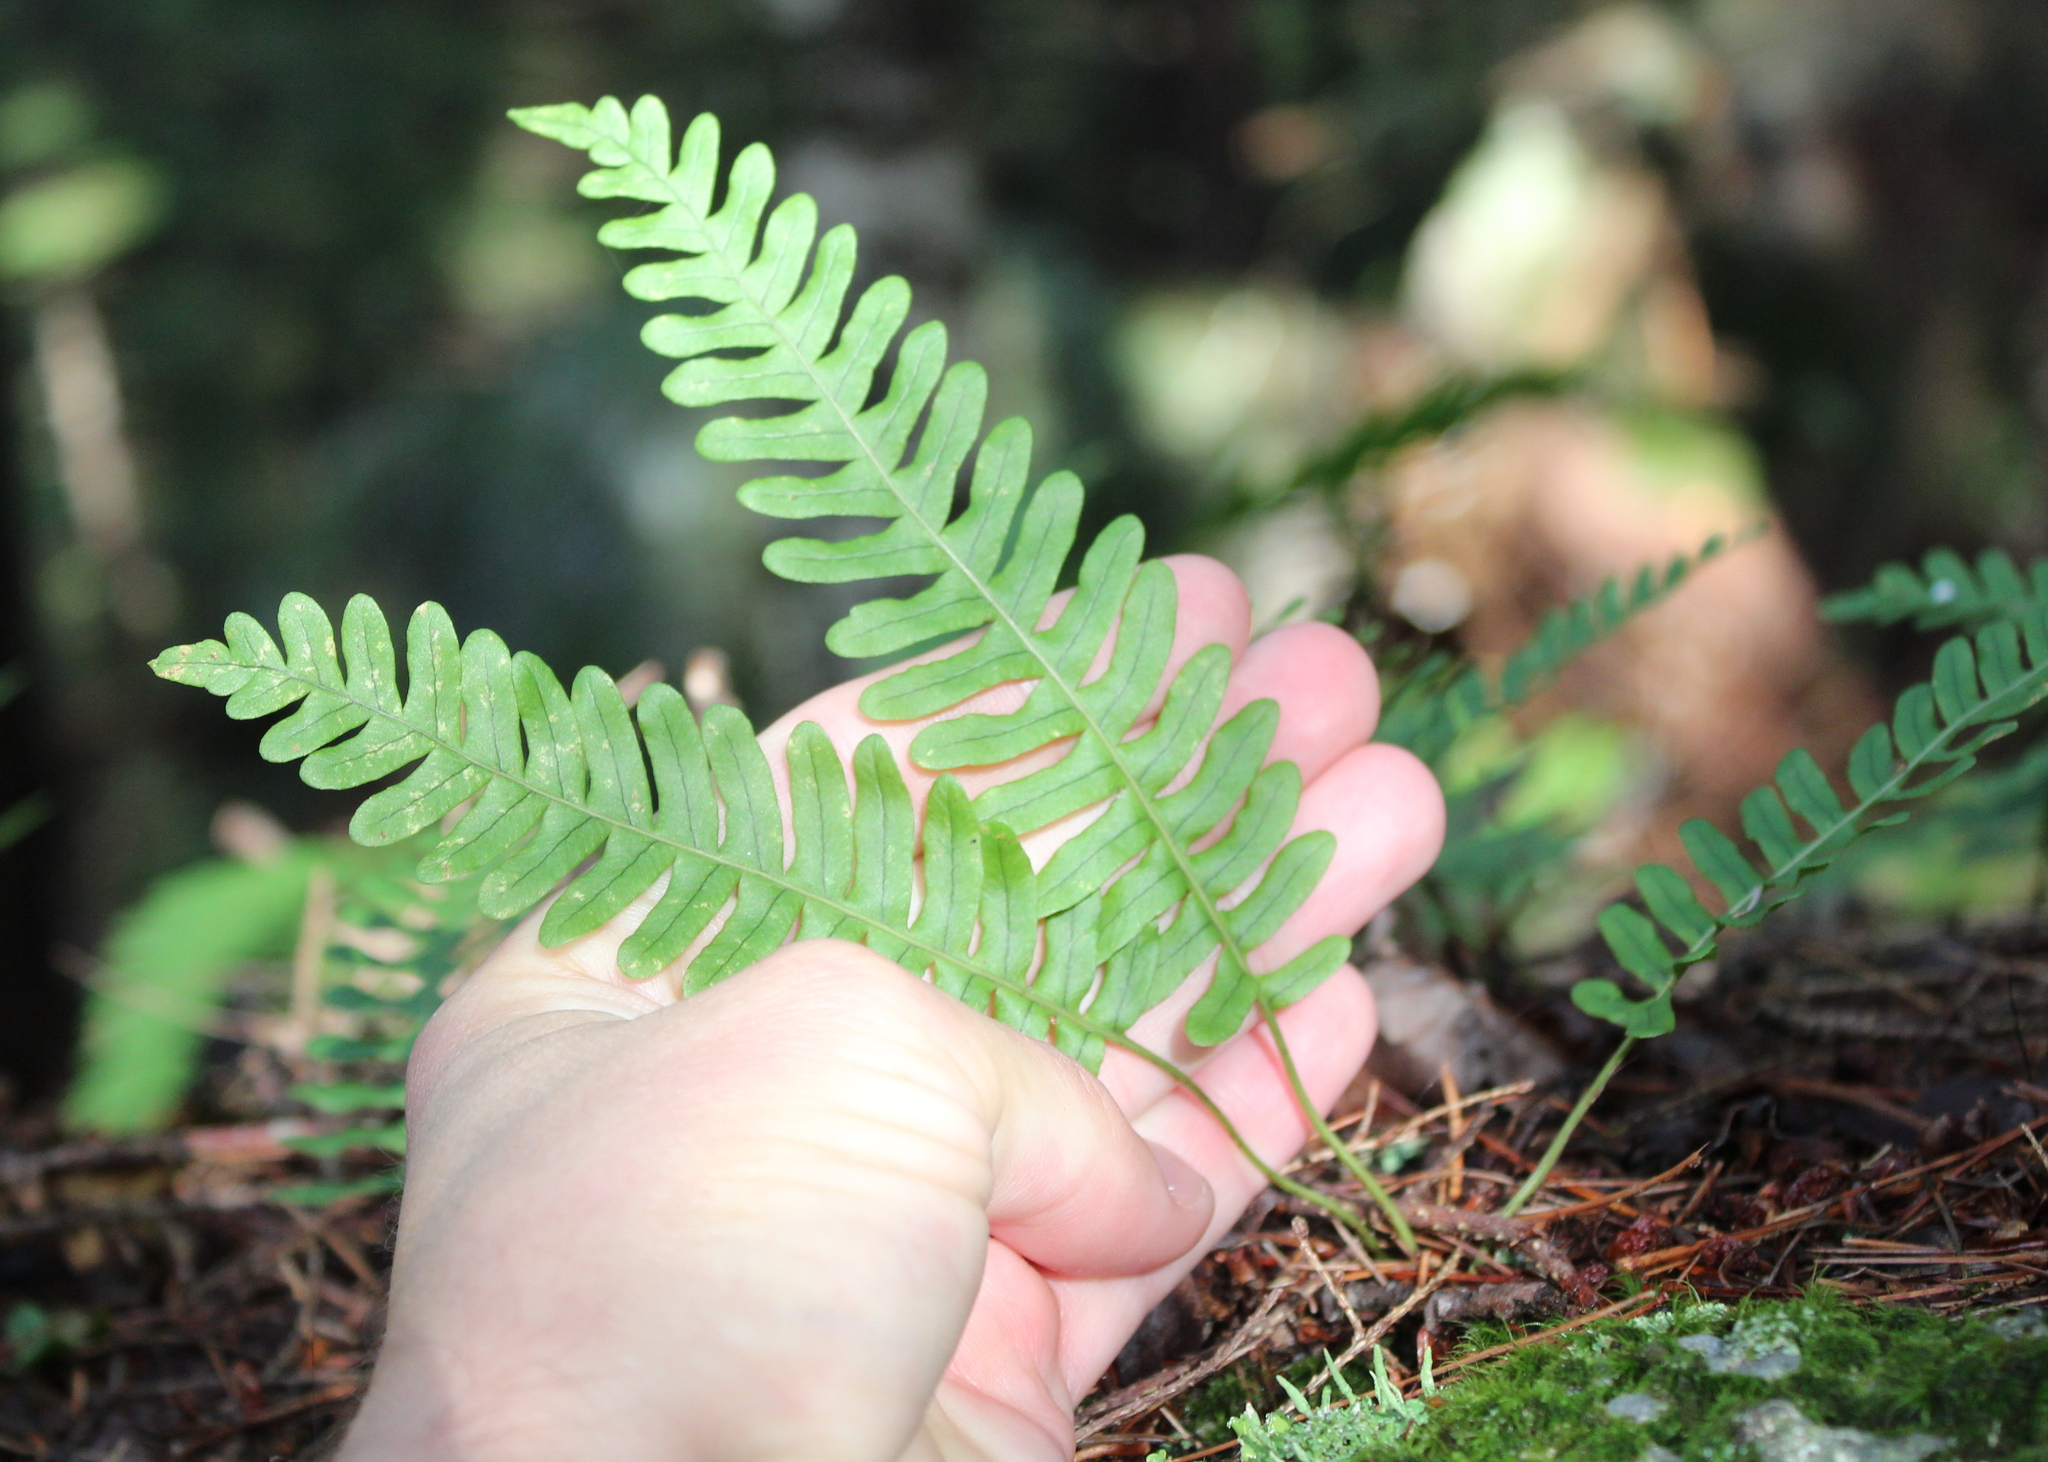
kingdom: Plantae
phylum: Tracheophyta
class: Polypodiopsida
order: Polypodiales
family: Polypodiaceae
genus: Polypodium
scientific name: Polypodium virginianum
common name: American wall fern
